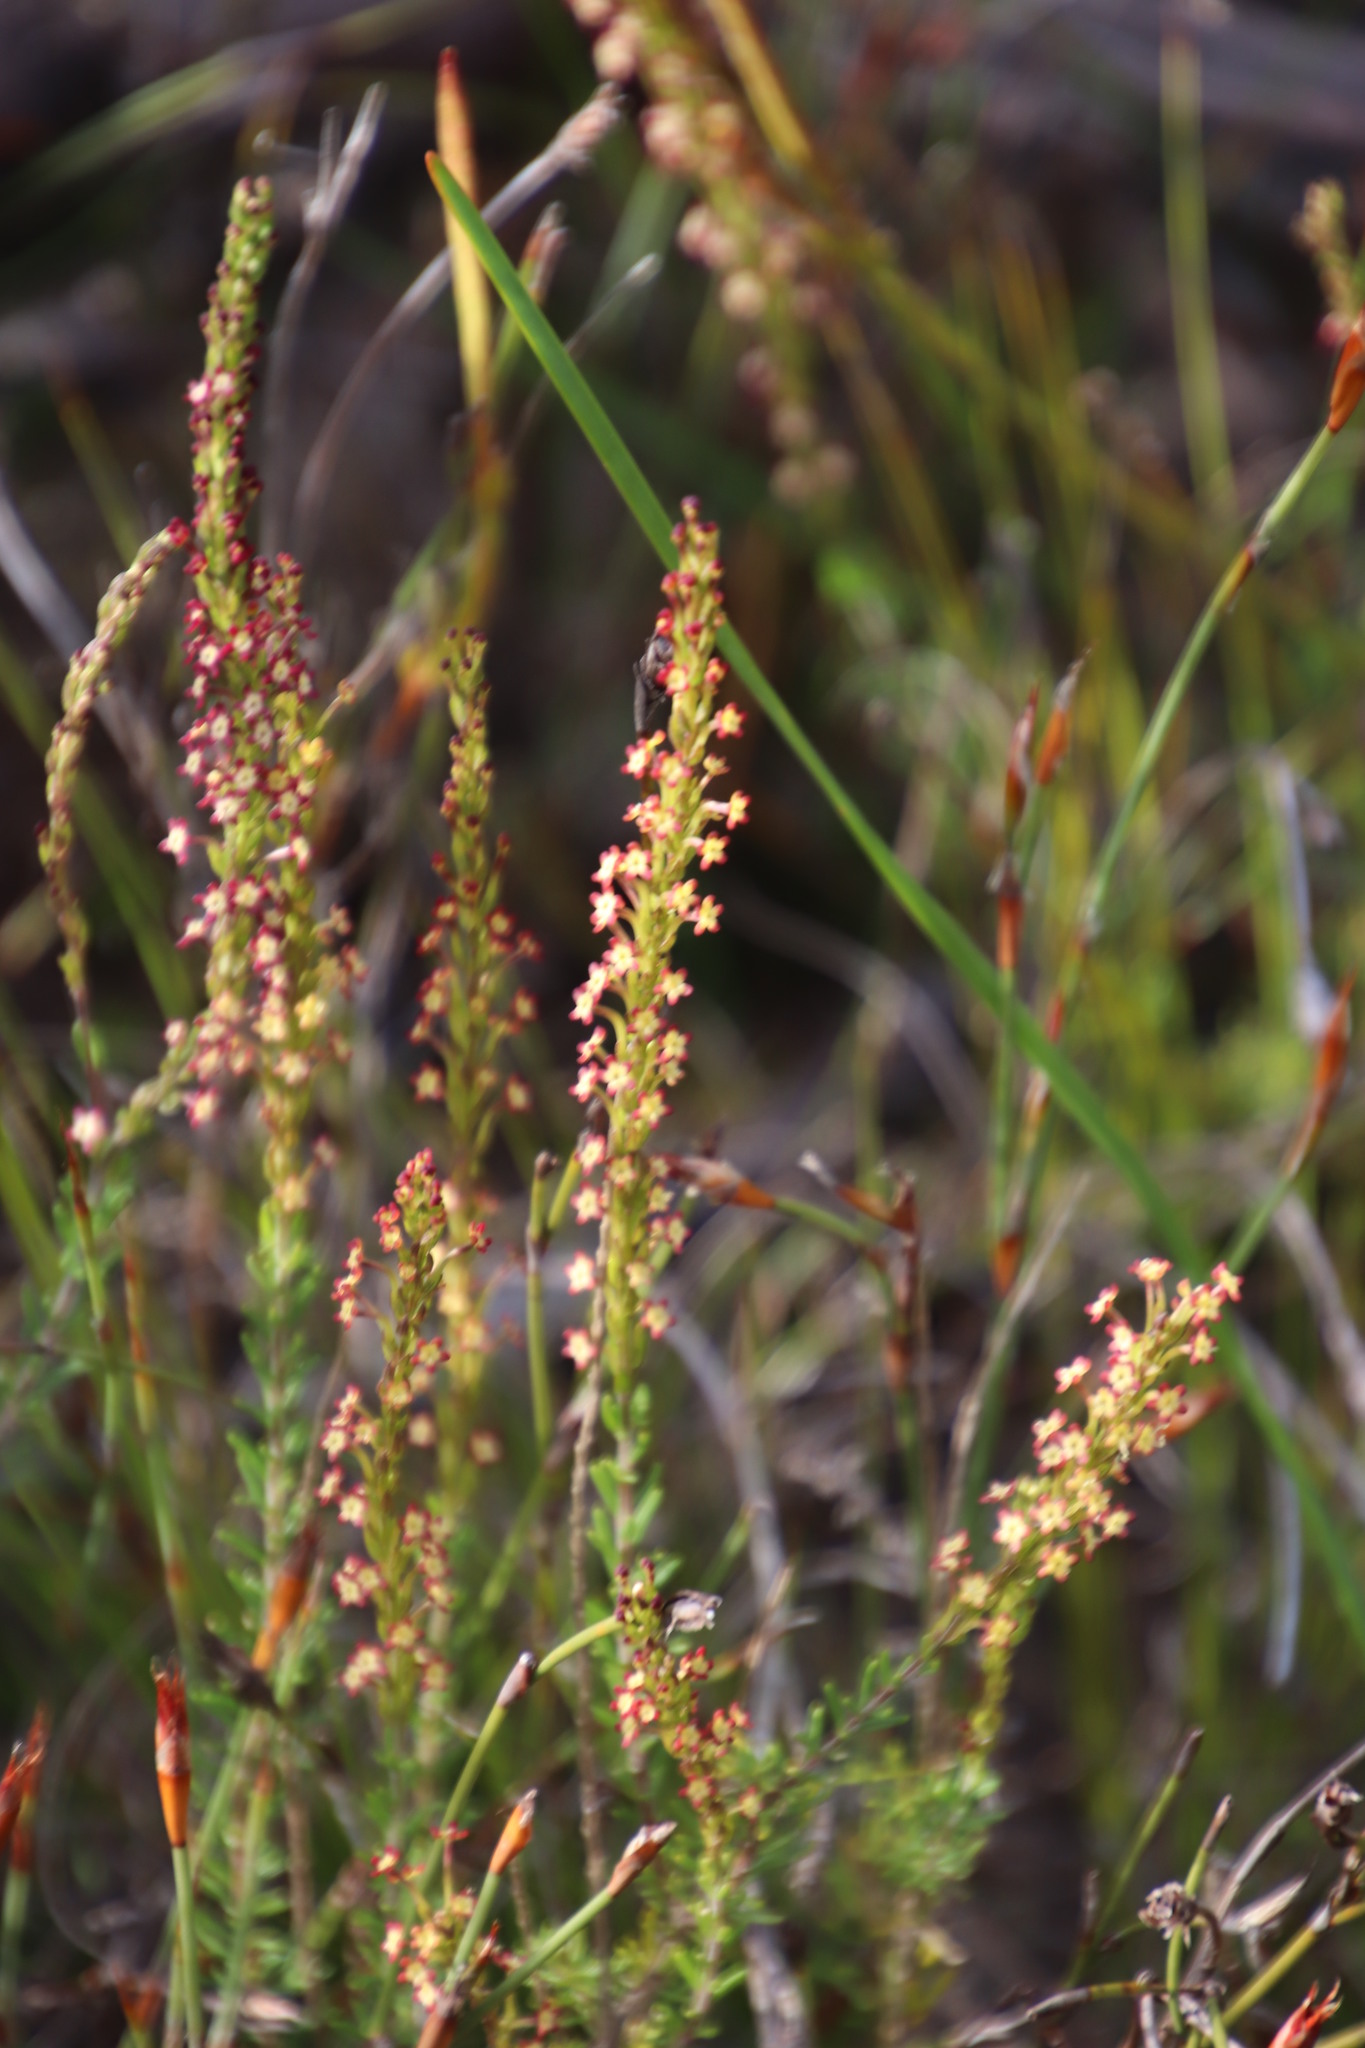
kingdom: Plantae
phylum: Tracheophyta
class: Magnoliopsida
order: Lamiales
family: Scrophulariaceae
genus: Microdon
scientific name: Microdon dubius
